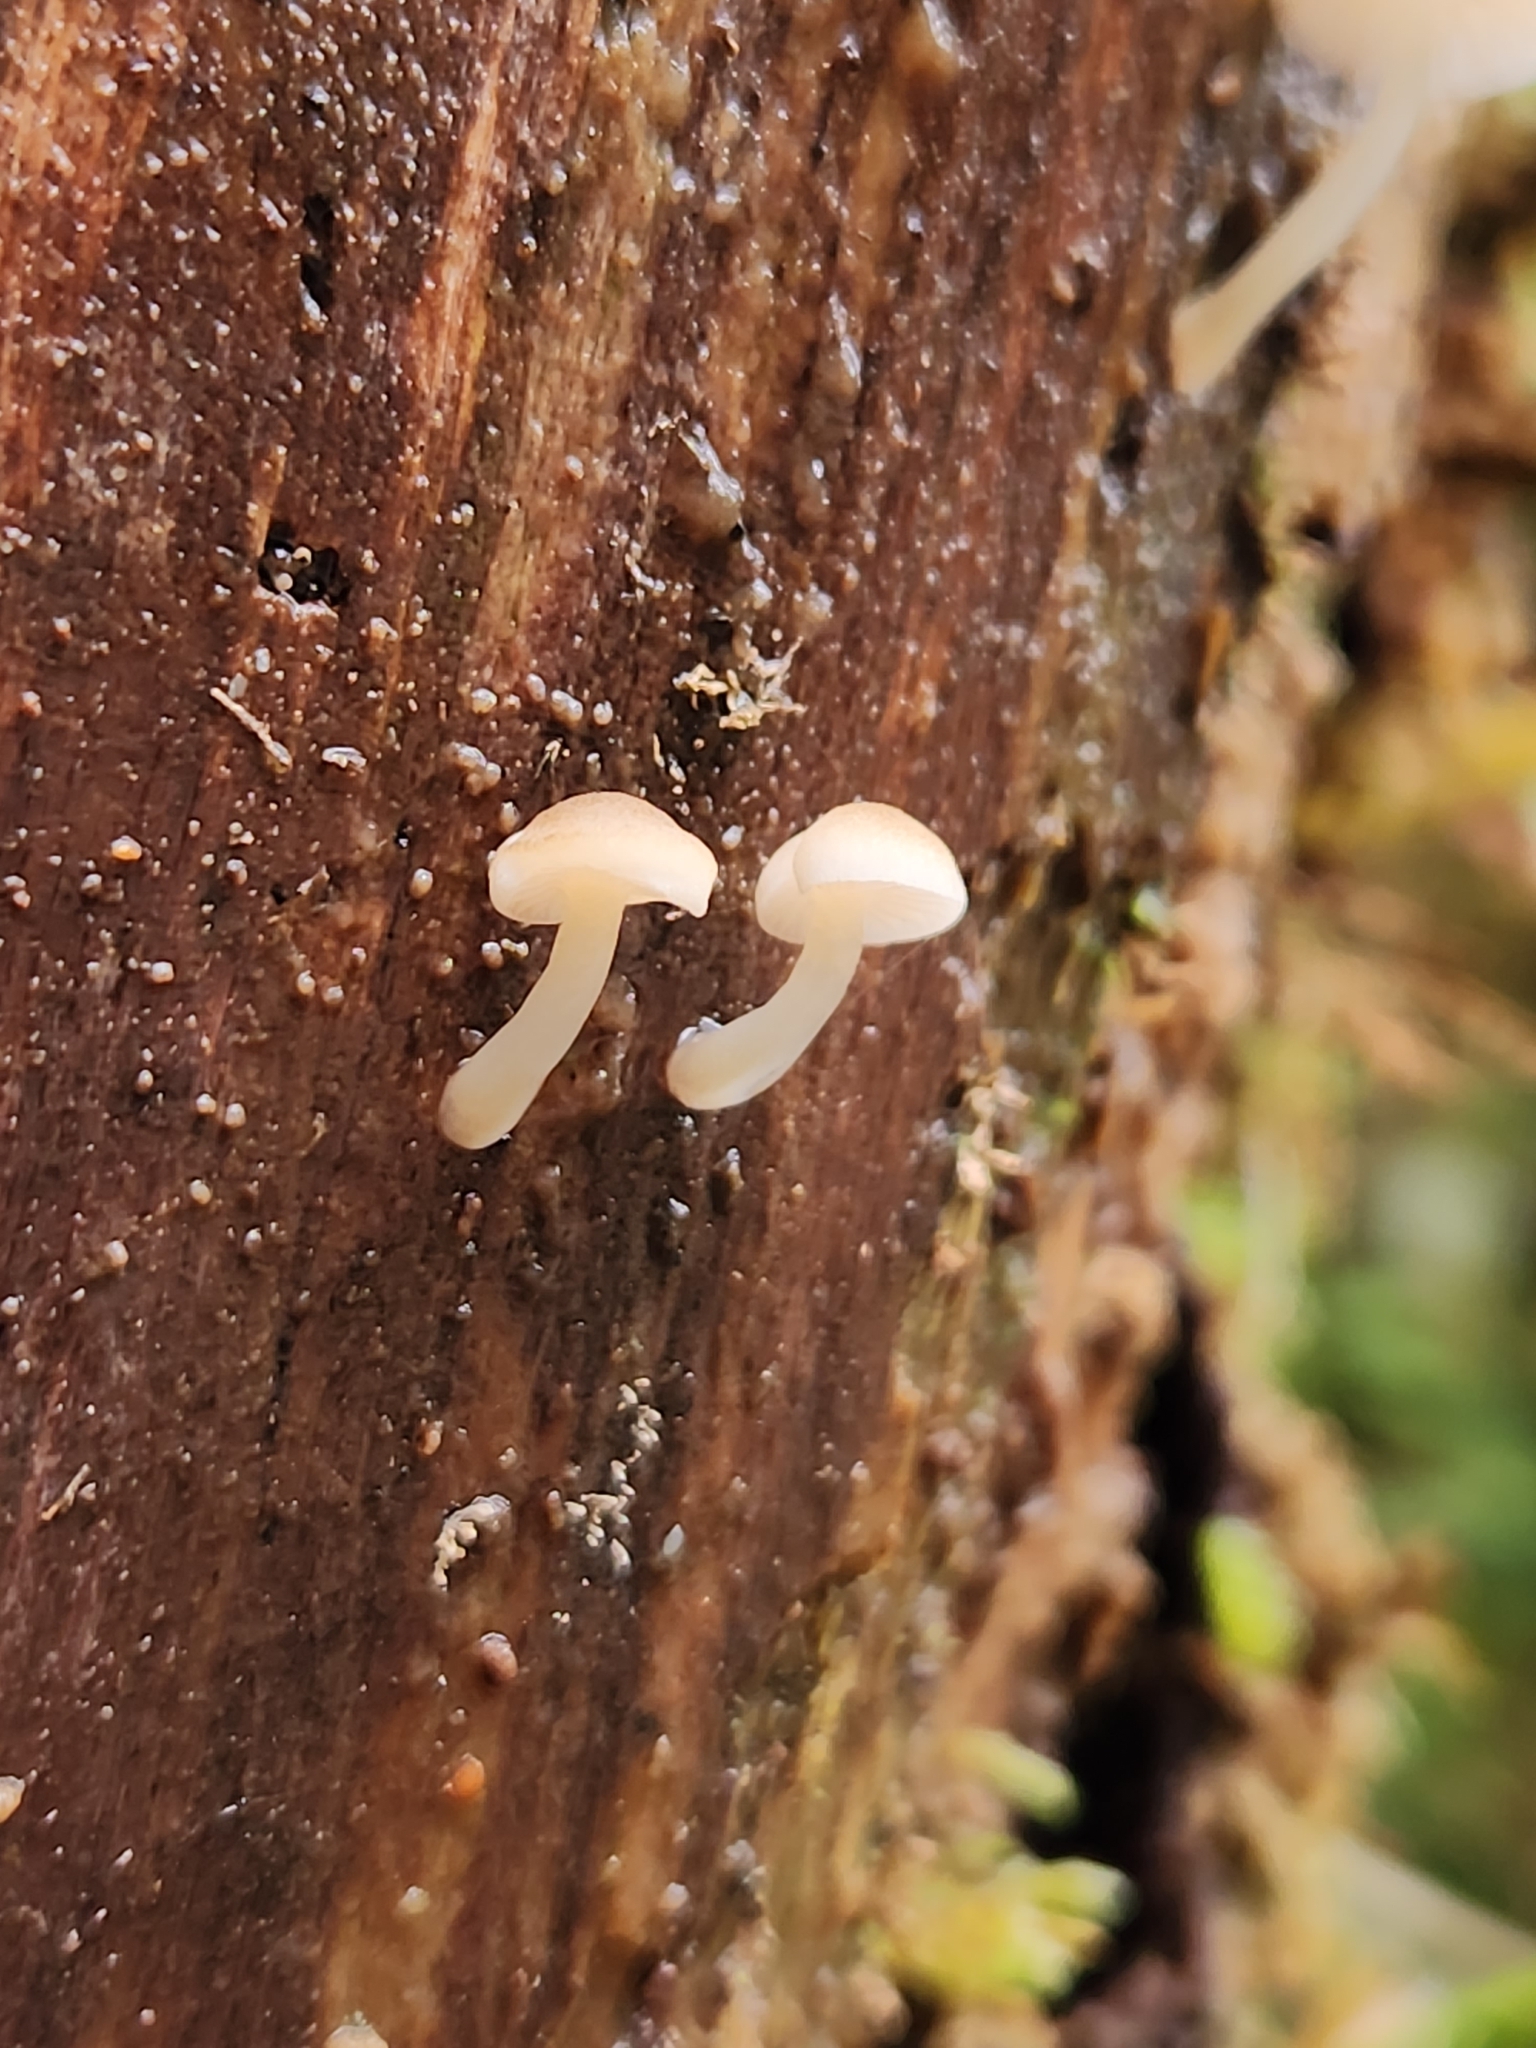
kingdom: Fungi
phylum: Basidiomycota
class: Agaricomycetes
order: Agaricales
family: Mycenaceae
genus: Roridomyces
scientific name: Roridomyces austrororidus
